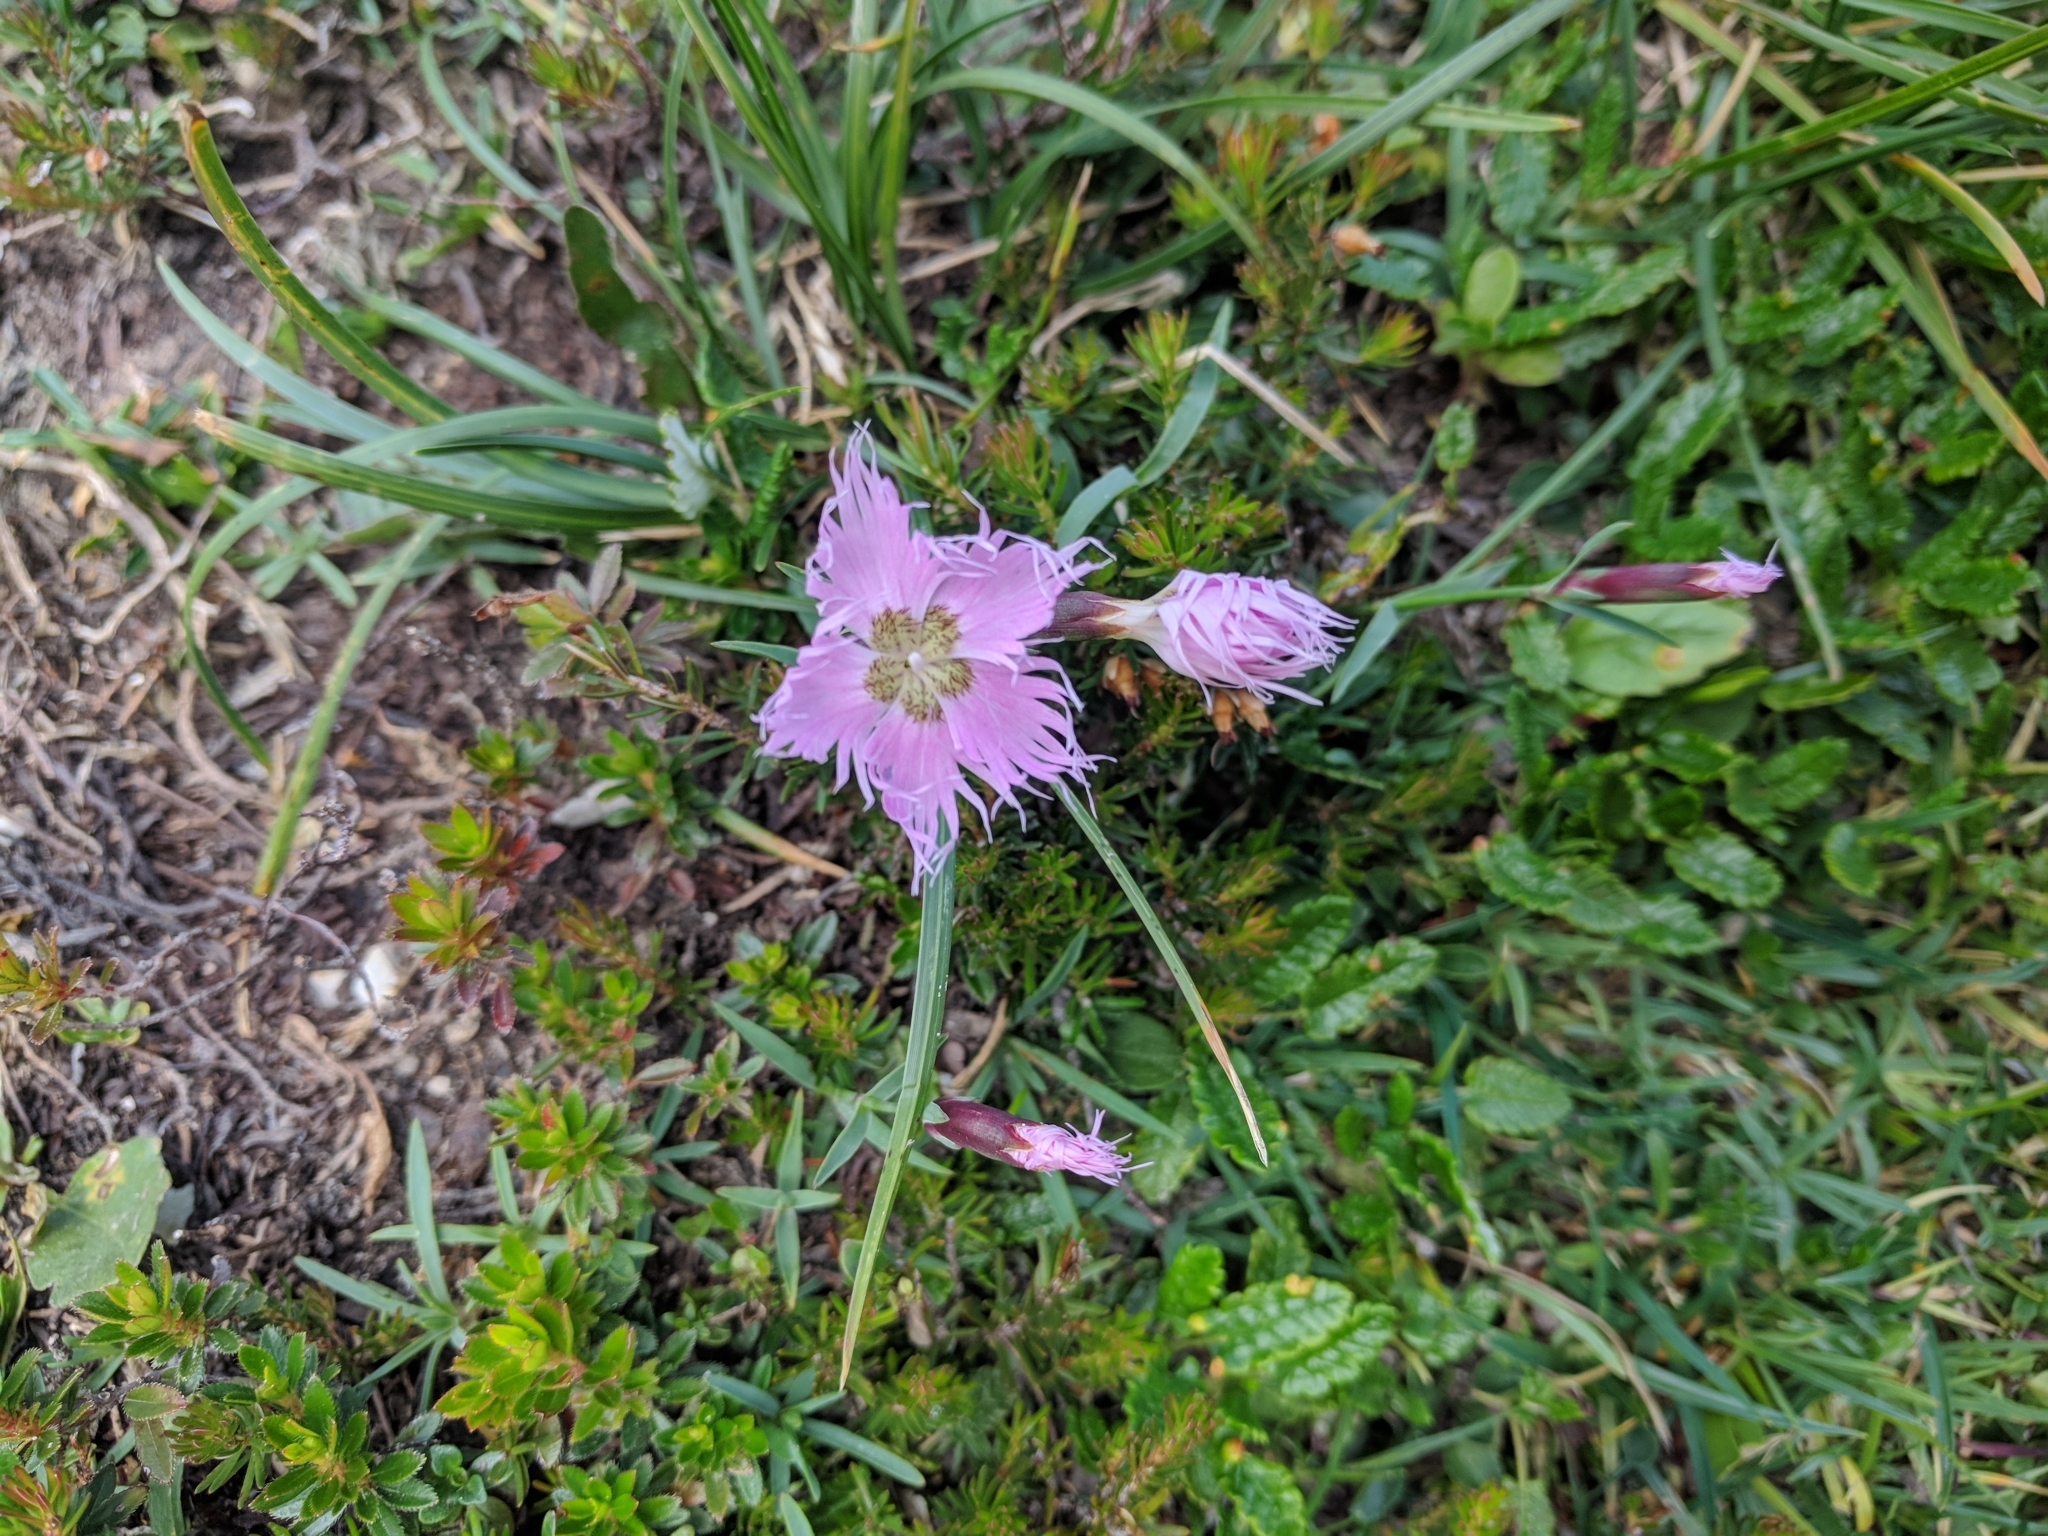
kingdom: Plantae
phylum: Tracheophyta
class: Magnoliopsida
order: Caryophyllales
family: Caryophyllaceae
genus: Dianthus
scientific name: Dianthus sternbergii
